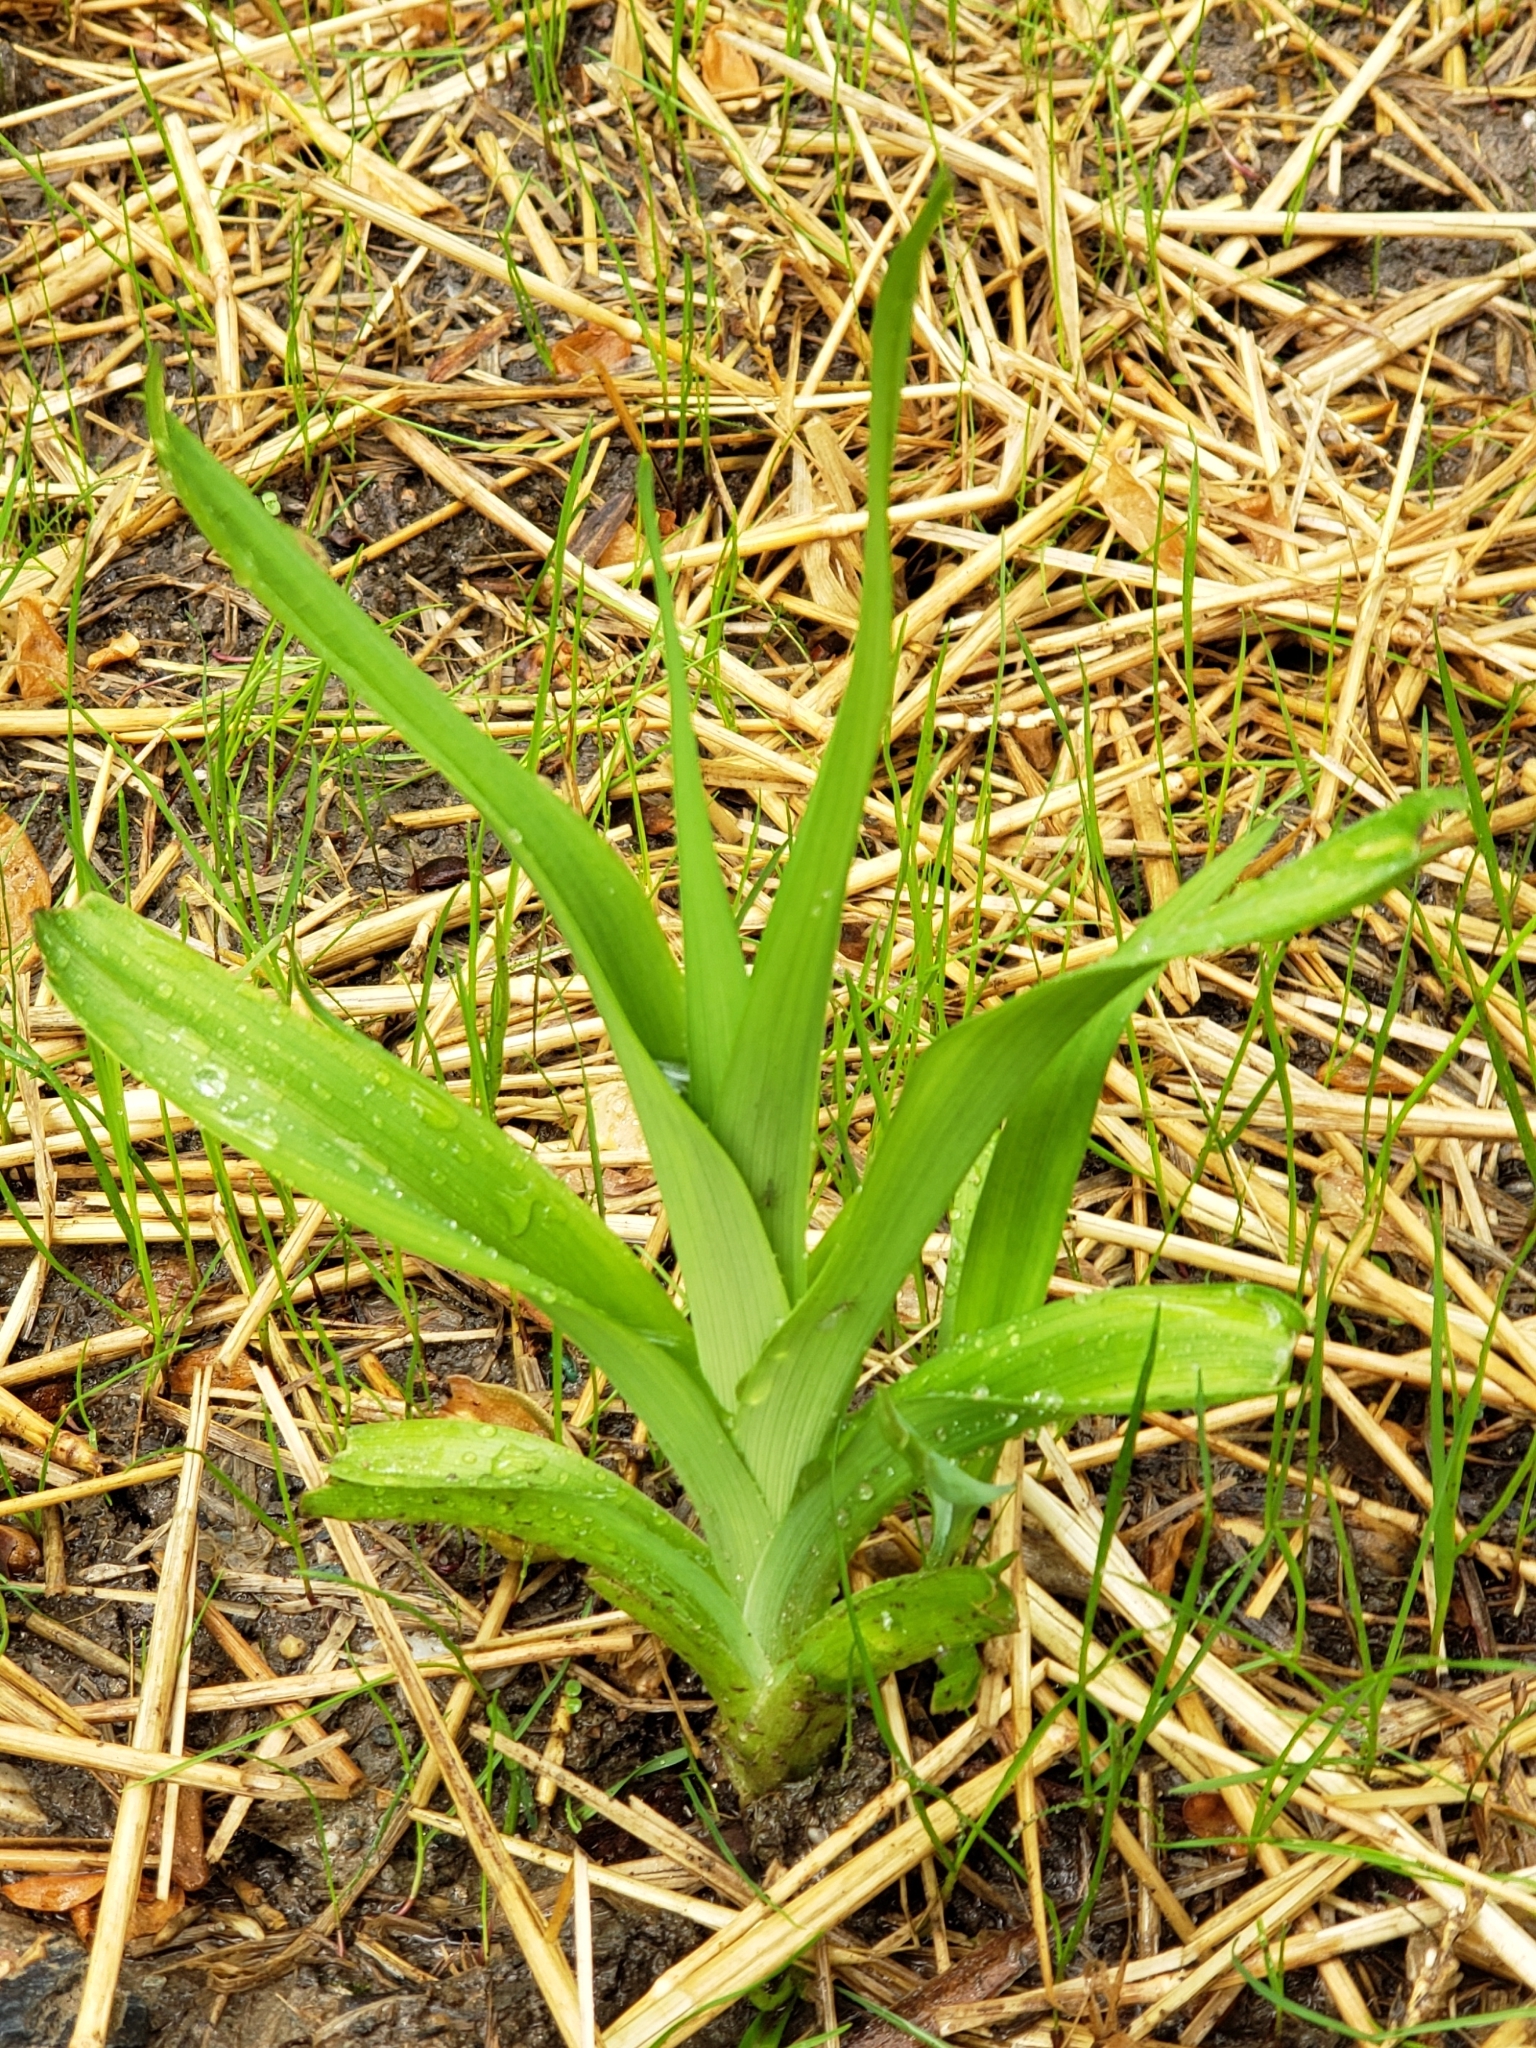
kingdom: Plantae
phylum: Tracheophyta
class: Liliopsida
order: Asparagales
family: Asphodelaceae
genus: Hemerocallis
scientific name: Hemerocallis fulva
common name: Orange day-lily
